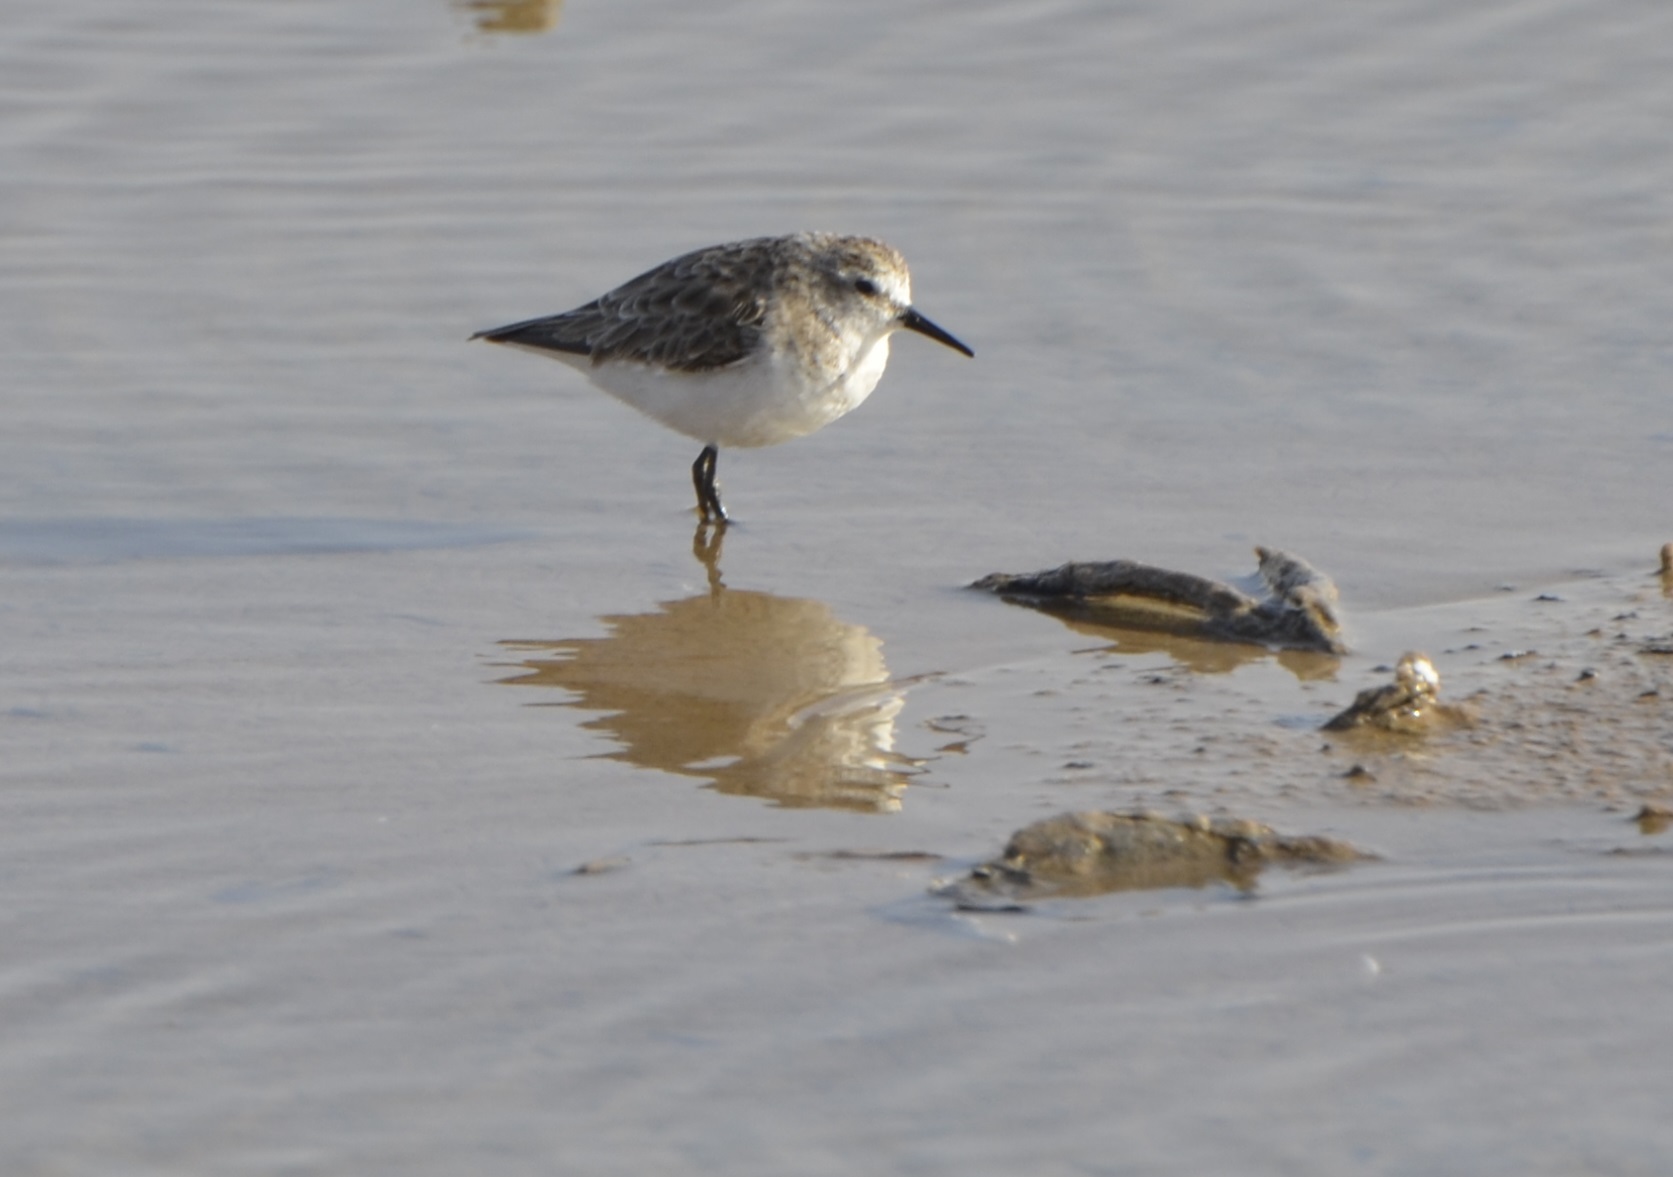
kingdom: Animalia
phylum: Chordata
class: Aves
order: Charadriiformes
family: Scolopacidae
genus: Calidris
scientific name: Calidris minuta
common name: Little stint
